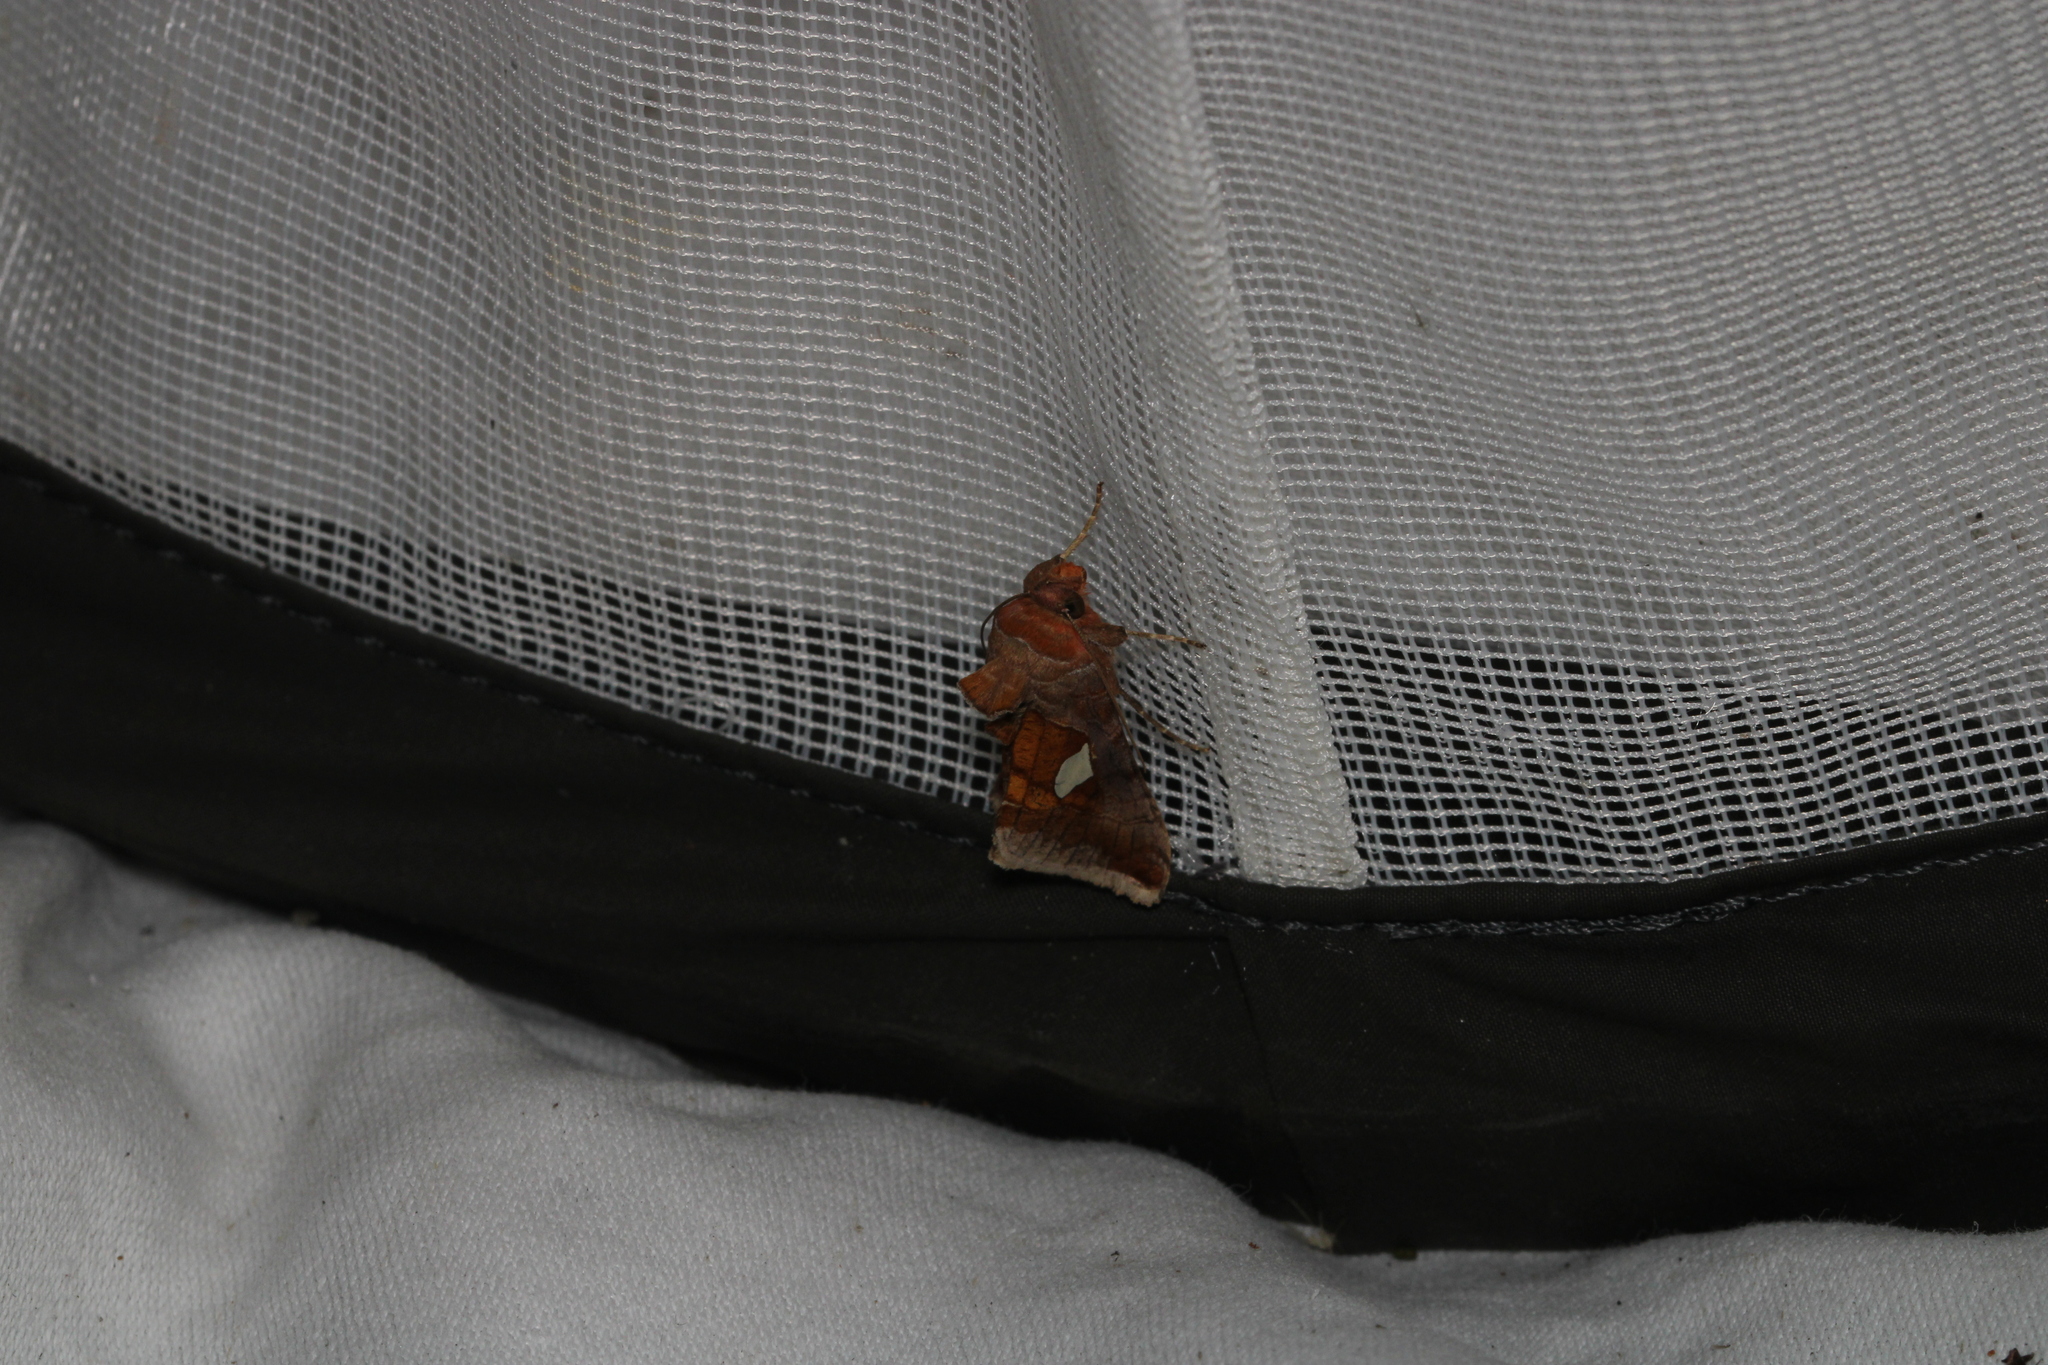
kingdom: Animalia
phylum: Arthropoda
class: Insecta
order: Lepidoptera
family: Noctuidae
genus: Autographa
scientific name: Autographa bractea
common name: Gold spangle
